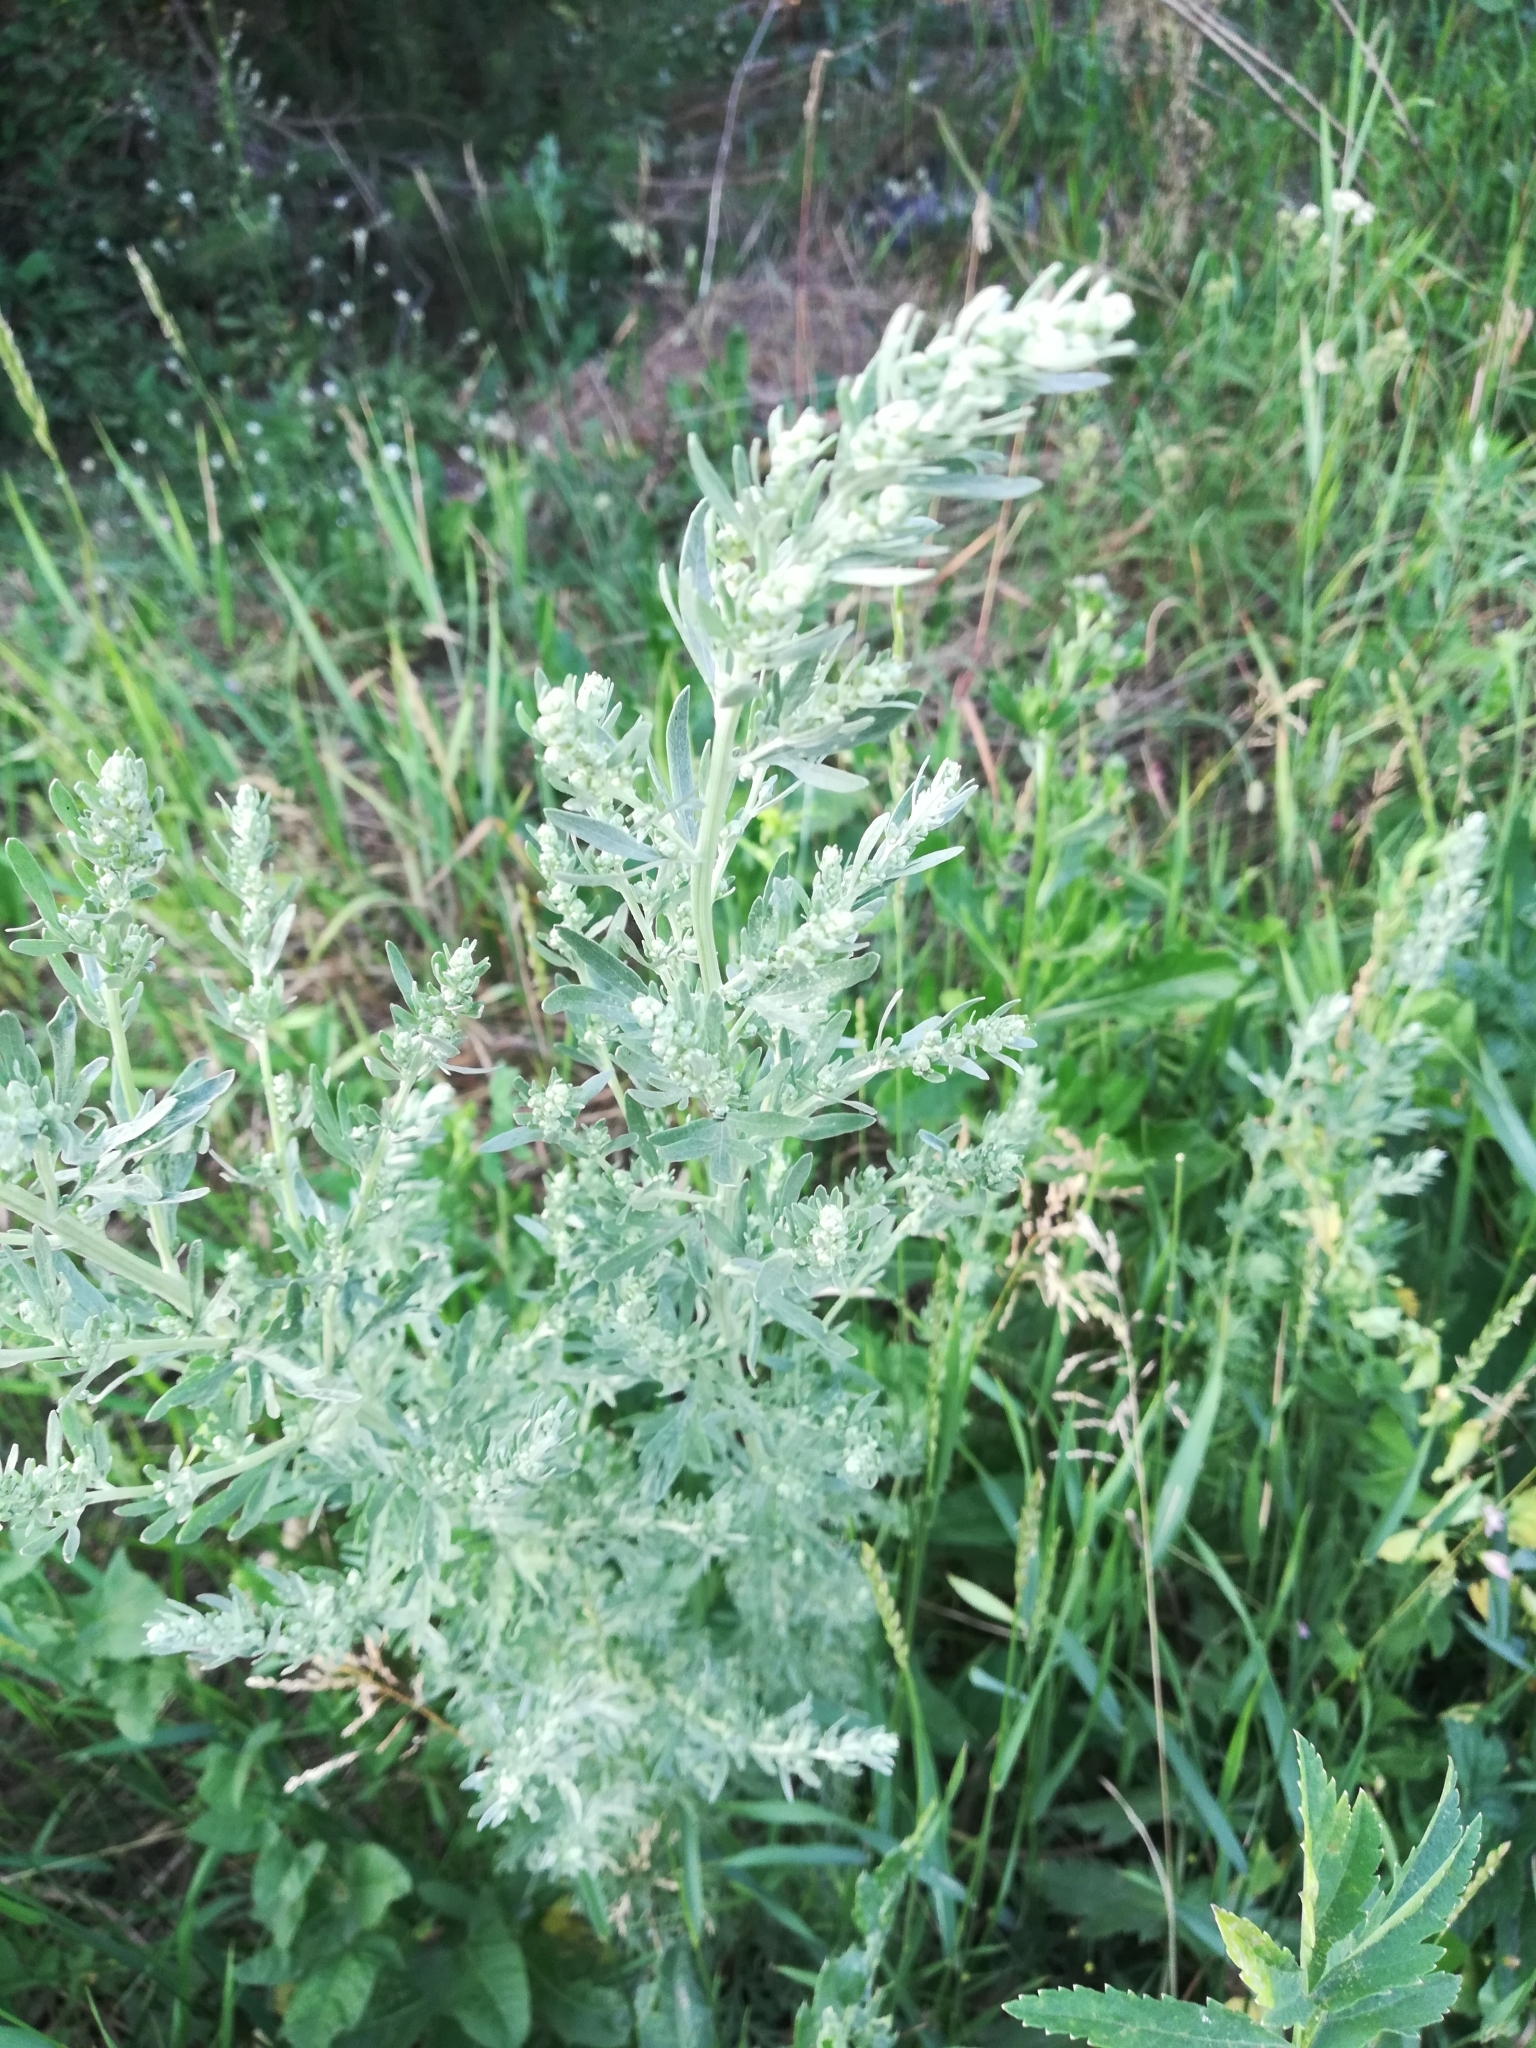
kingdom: Plantae
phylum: Tracheophyta
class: Magnoliopsida
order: Asterales
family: Asteraceae
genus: Artemisia
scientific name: Artemisia absinthium
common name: Wormwood
